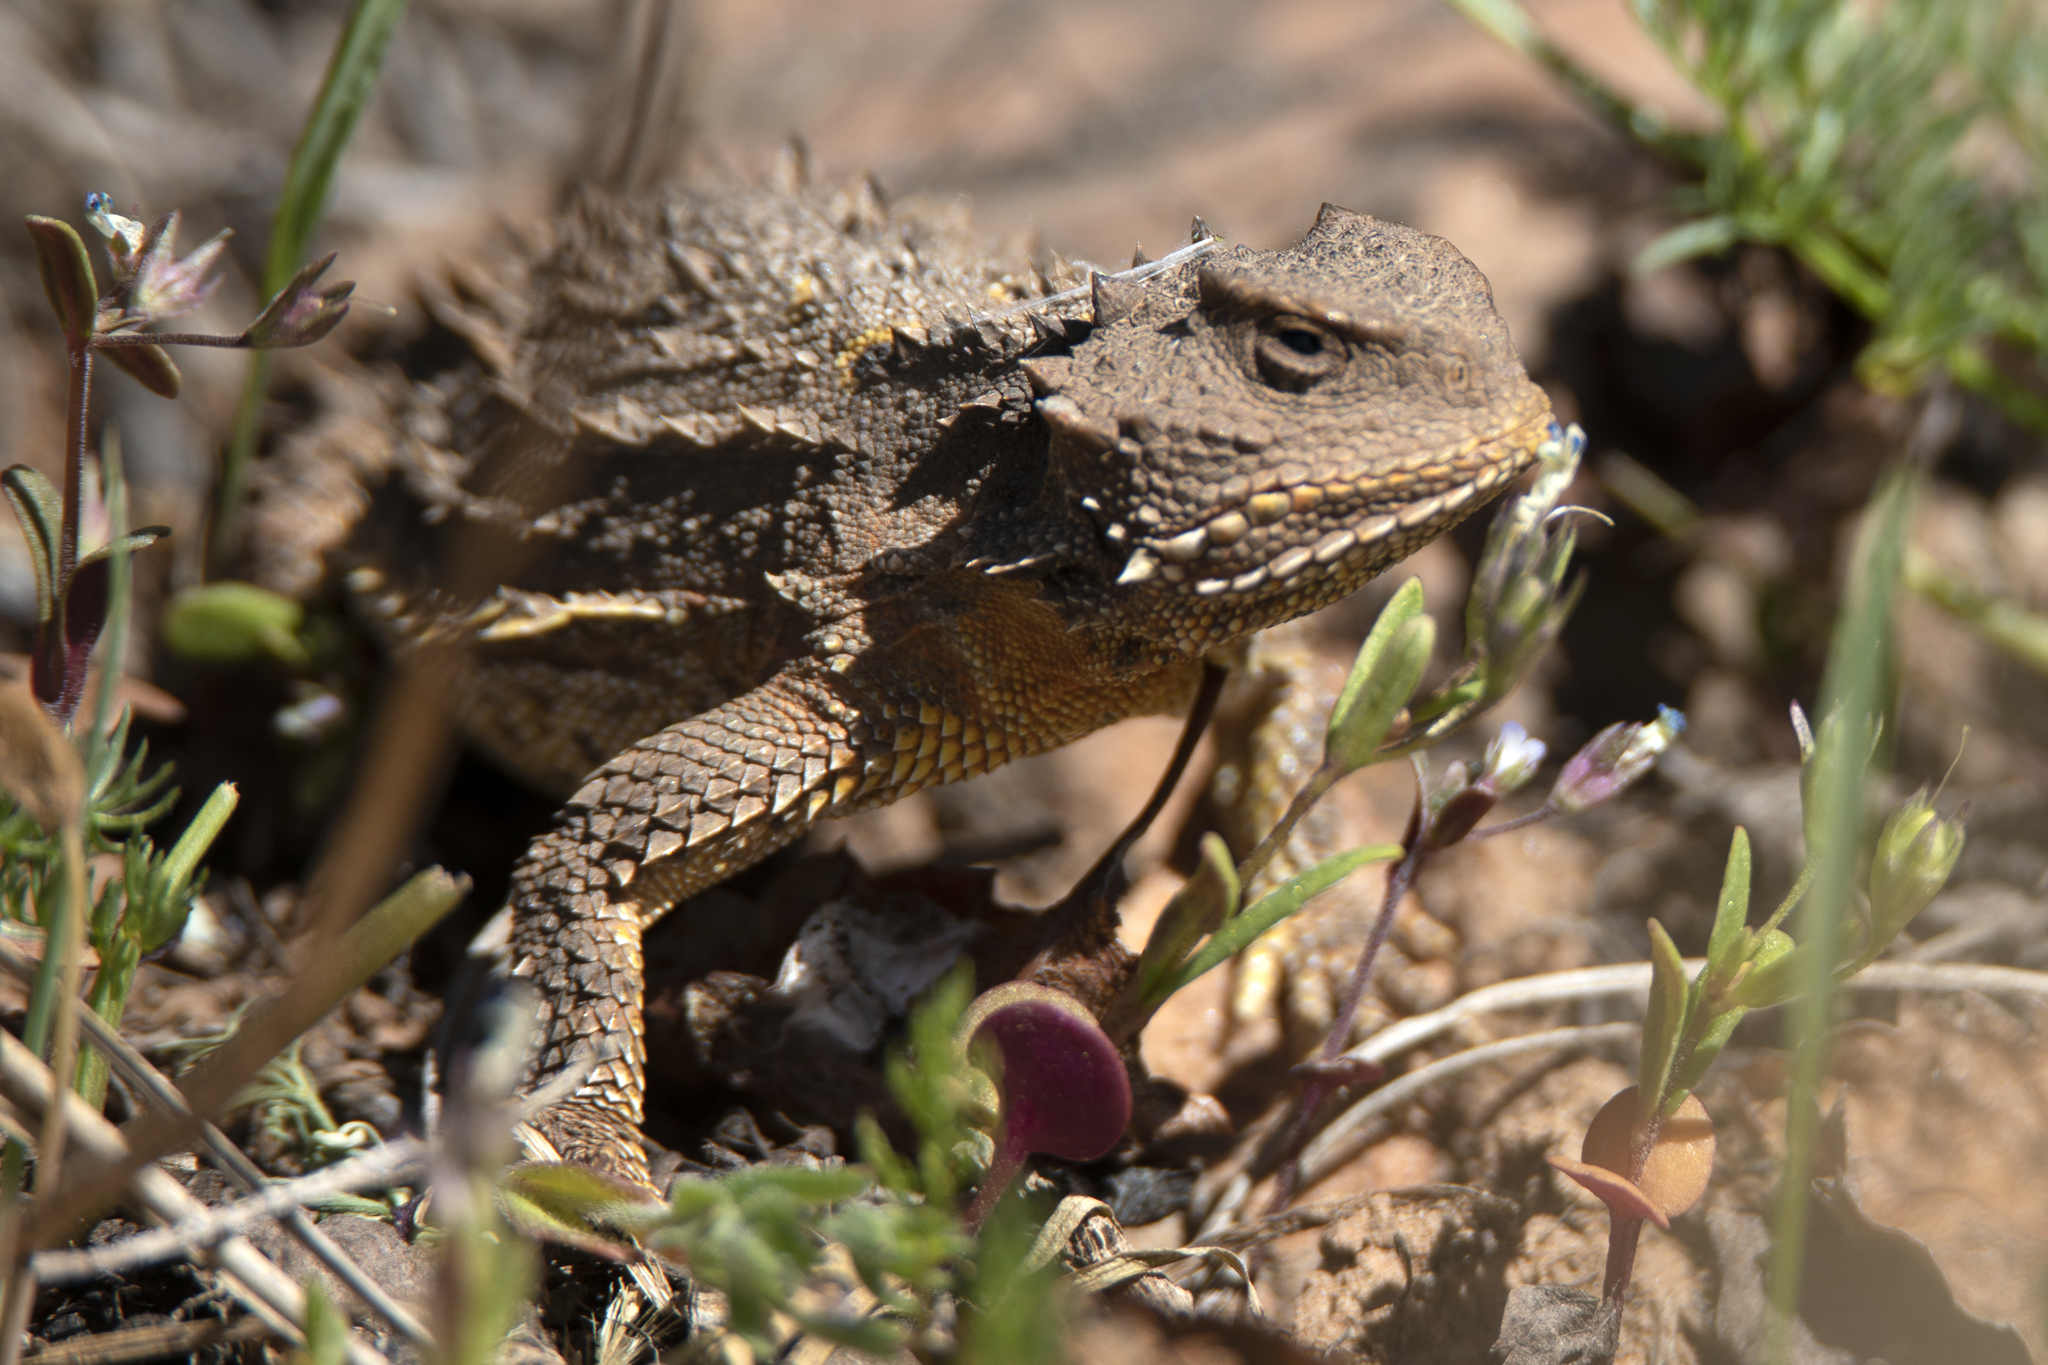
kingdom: Animalia
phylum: Chordata
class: Squamata
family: Phrynosomatidae
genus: Phrynosoma
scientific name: Phrynosoma hernandesi
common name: Greater short-horned lizard
